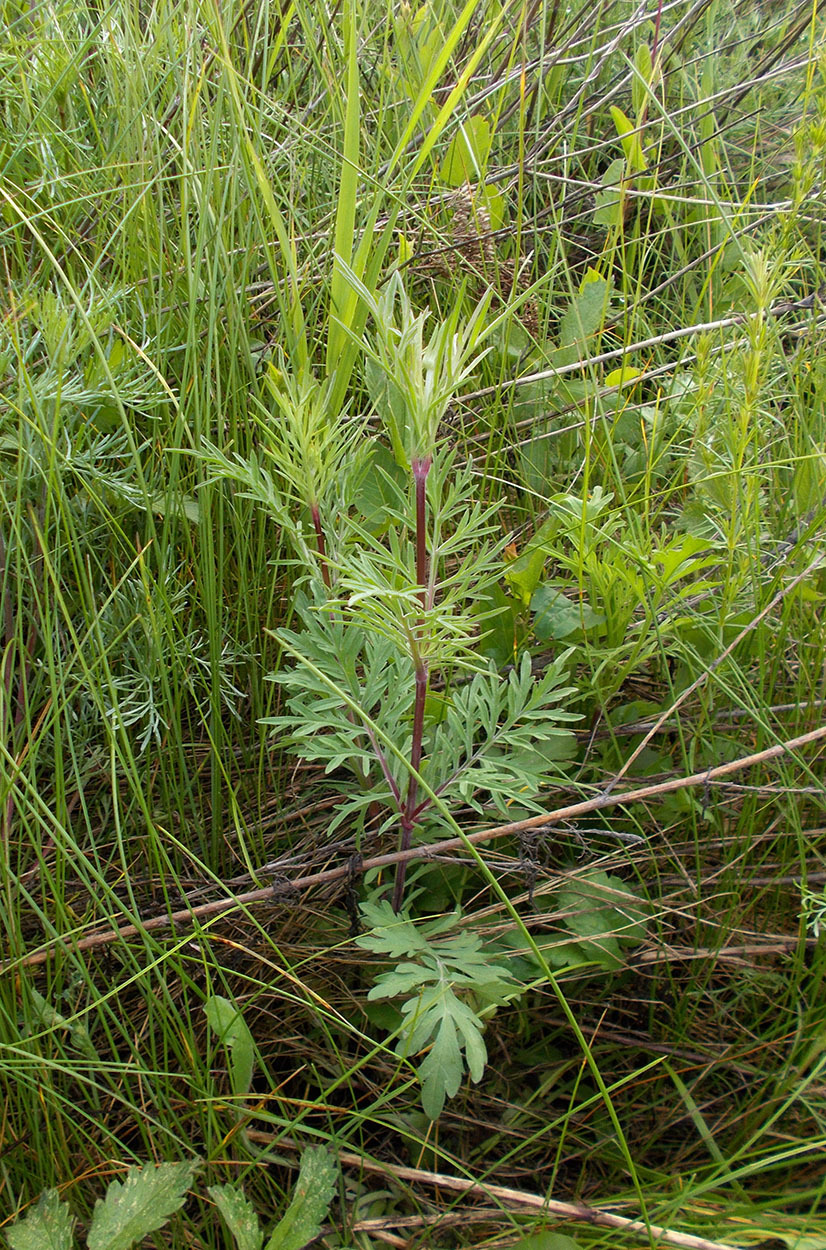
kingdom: Plantae
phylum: Tracheophyta
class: Magnoliopsida
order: Dipsacales
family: Caprifoliaceae
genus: Scabiosa
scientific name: Scabiosa ochroleuca
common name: Cream pincushions
